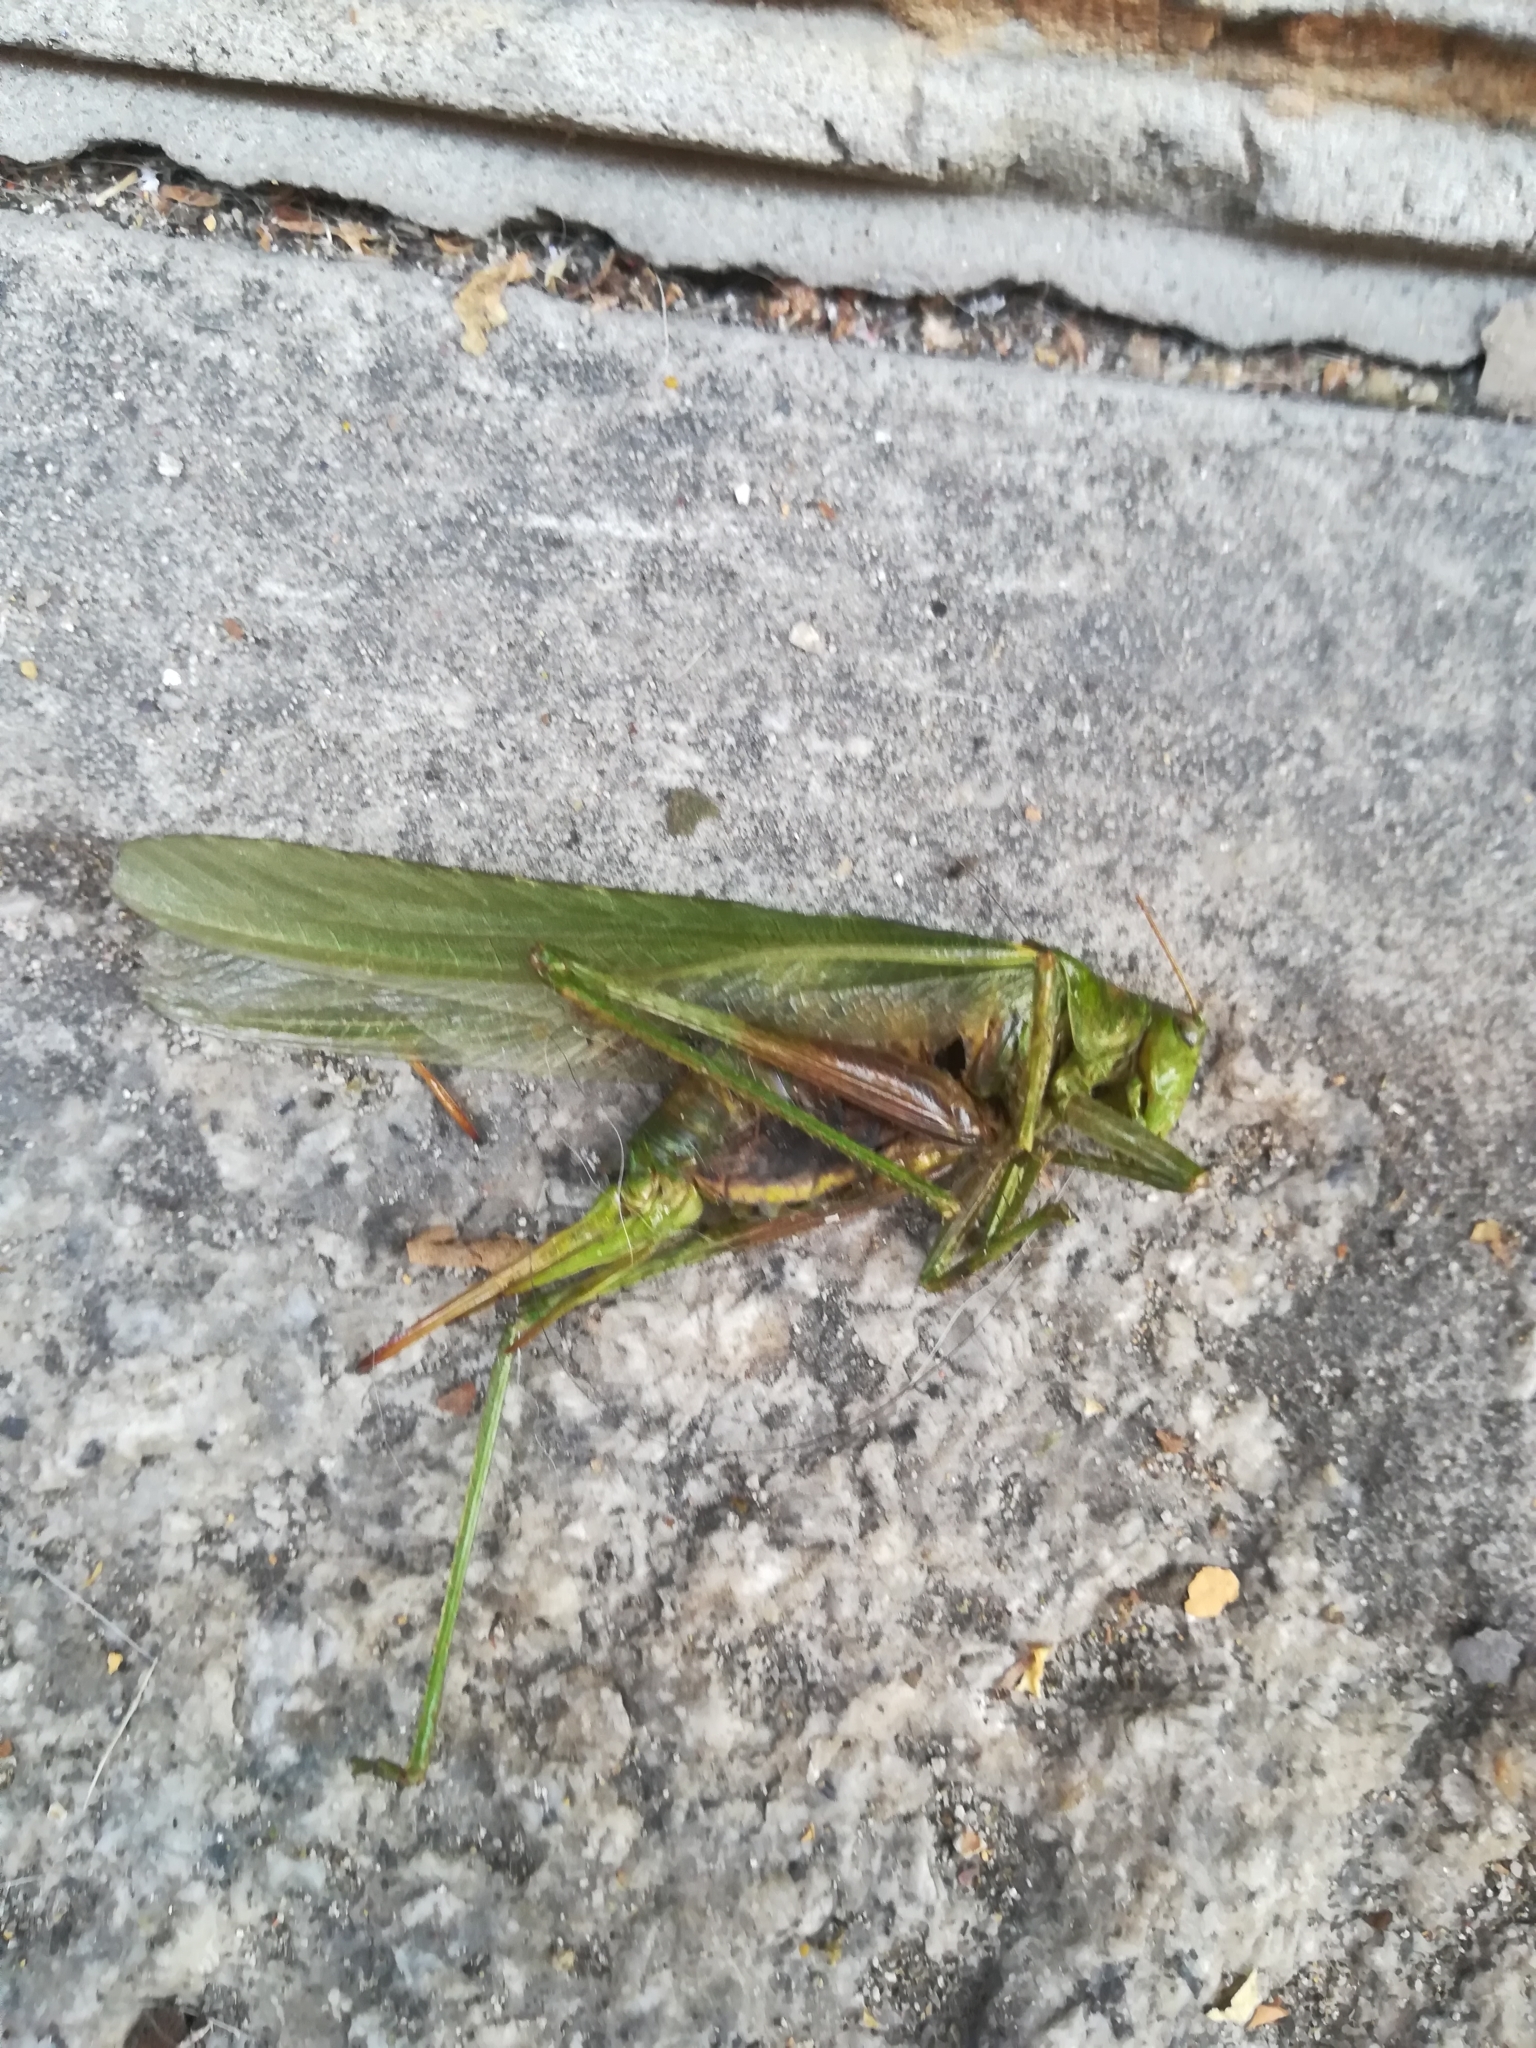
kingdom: Animalia
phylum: Arthropoda
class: Insecta
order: Orthoptera
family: Tettigoniidae
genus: Tettigonia
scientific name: Tettigonia viridissima
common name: Great green bush-cricket
